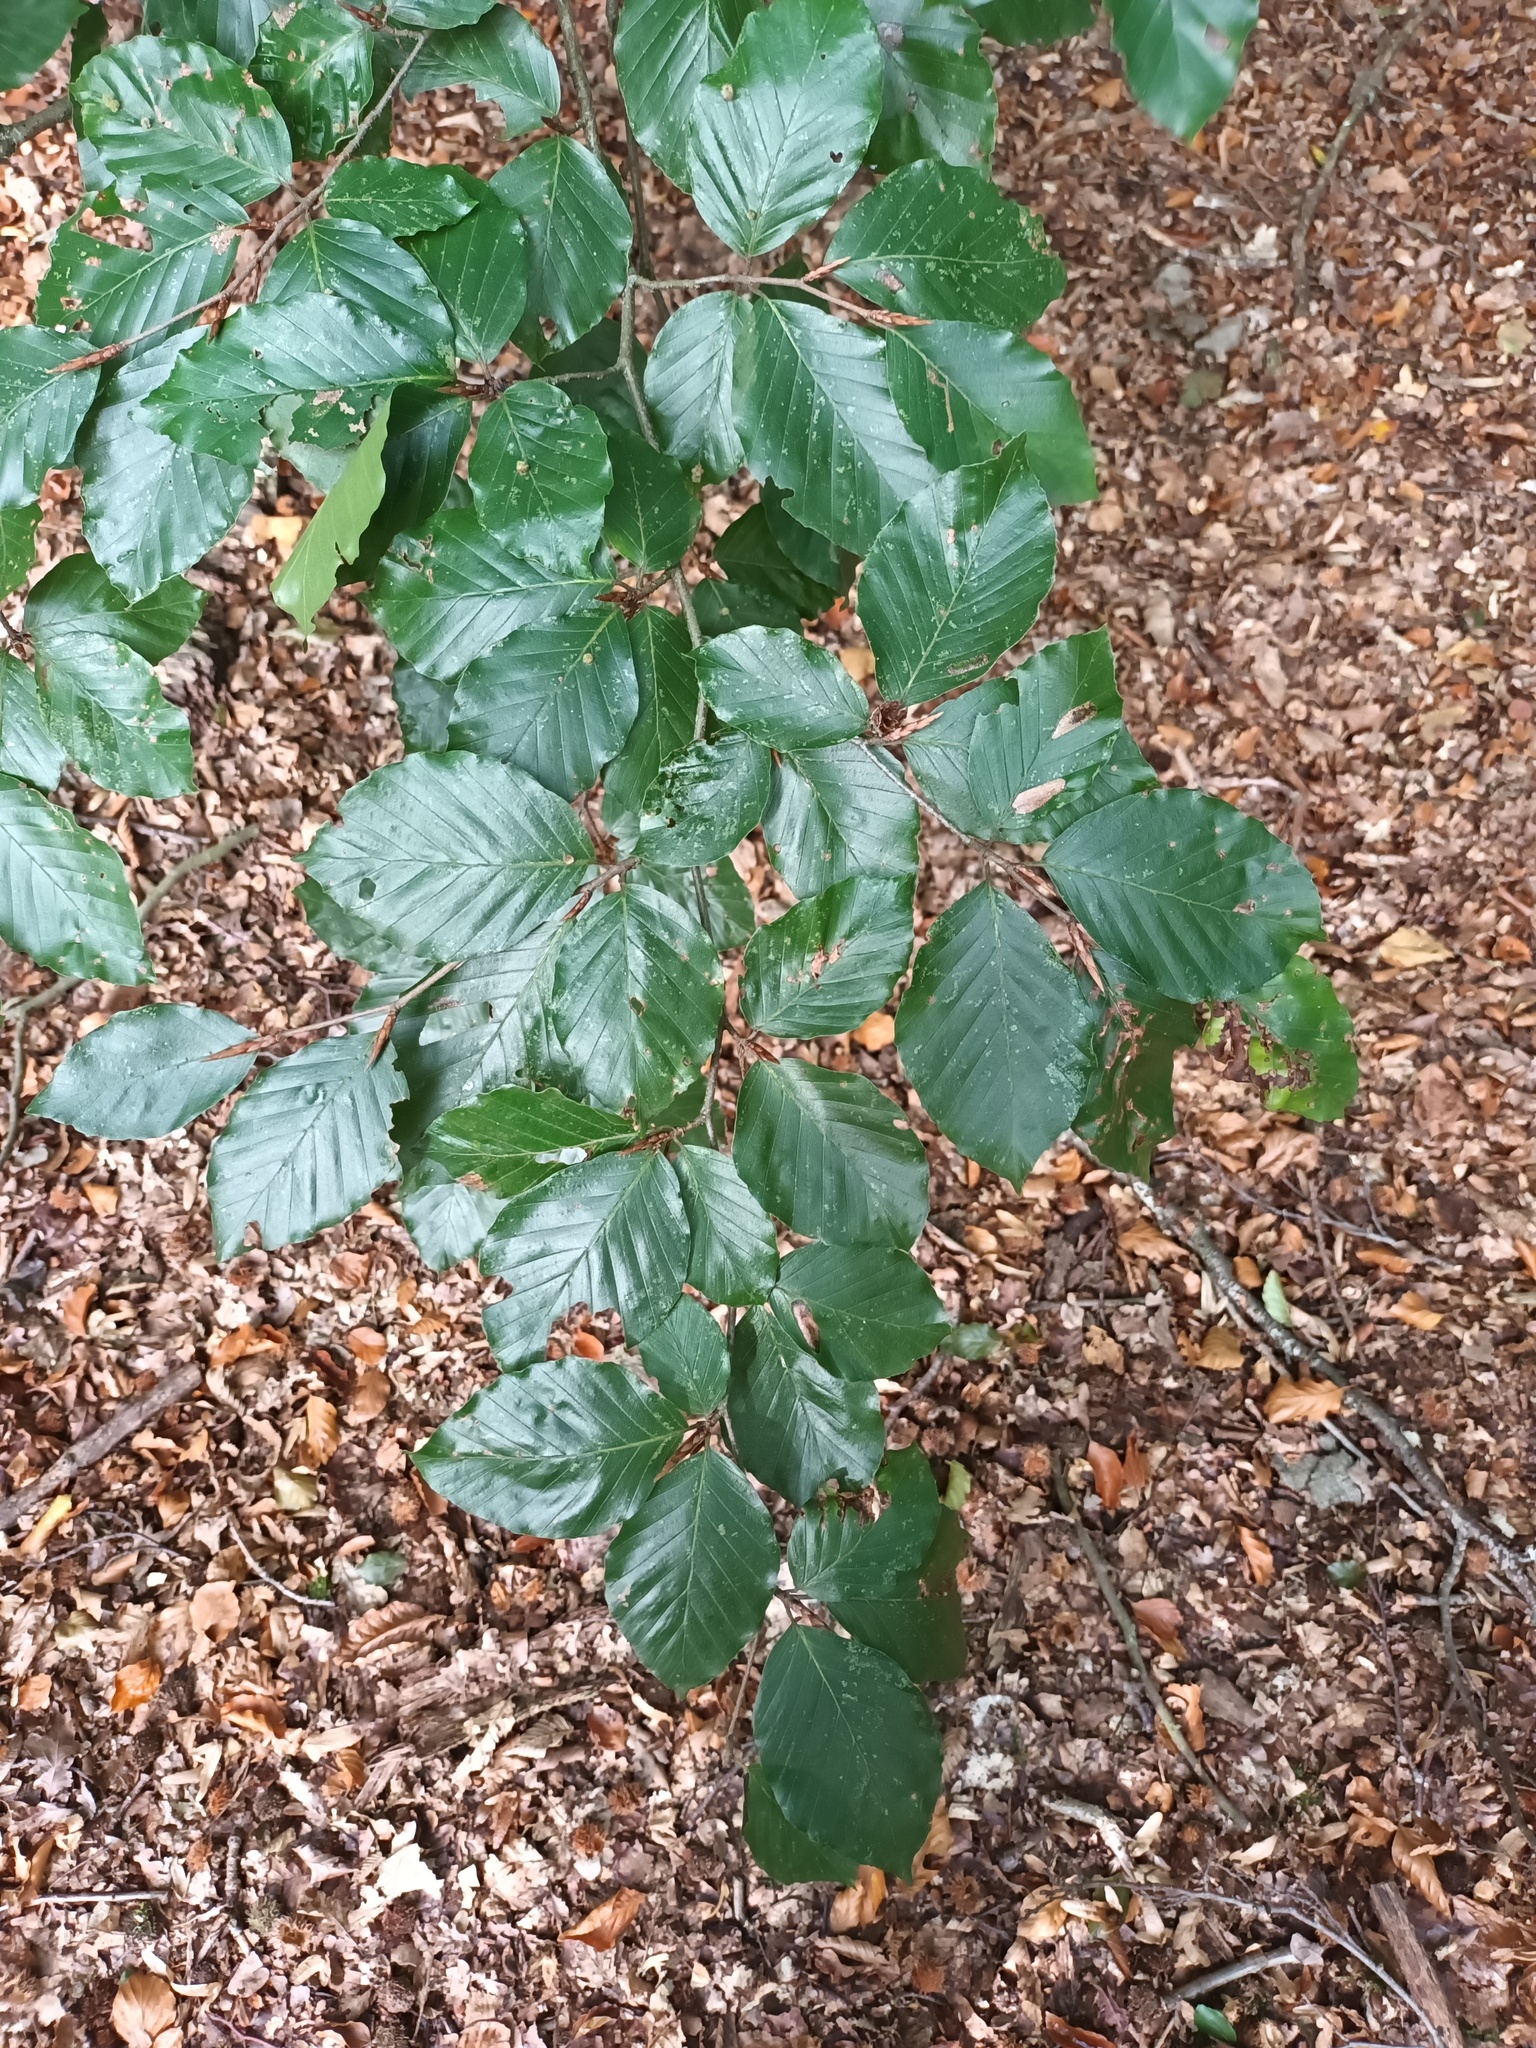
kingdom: Plantae
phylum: Tracheophyta
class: Magnoliopsida
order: Fagales
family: Fagaceae
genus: Fagus
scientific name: Fagus sylvatica
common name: Beech
